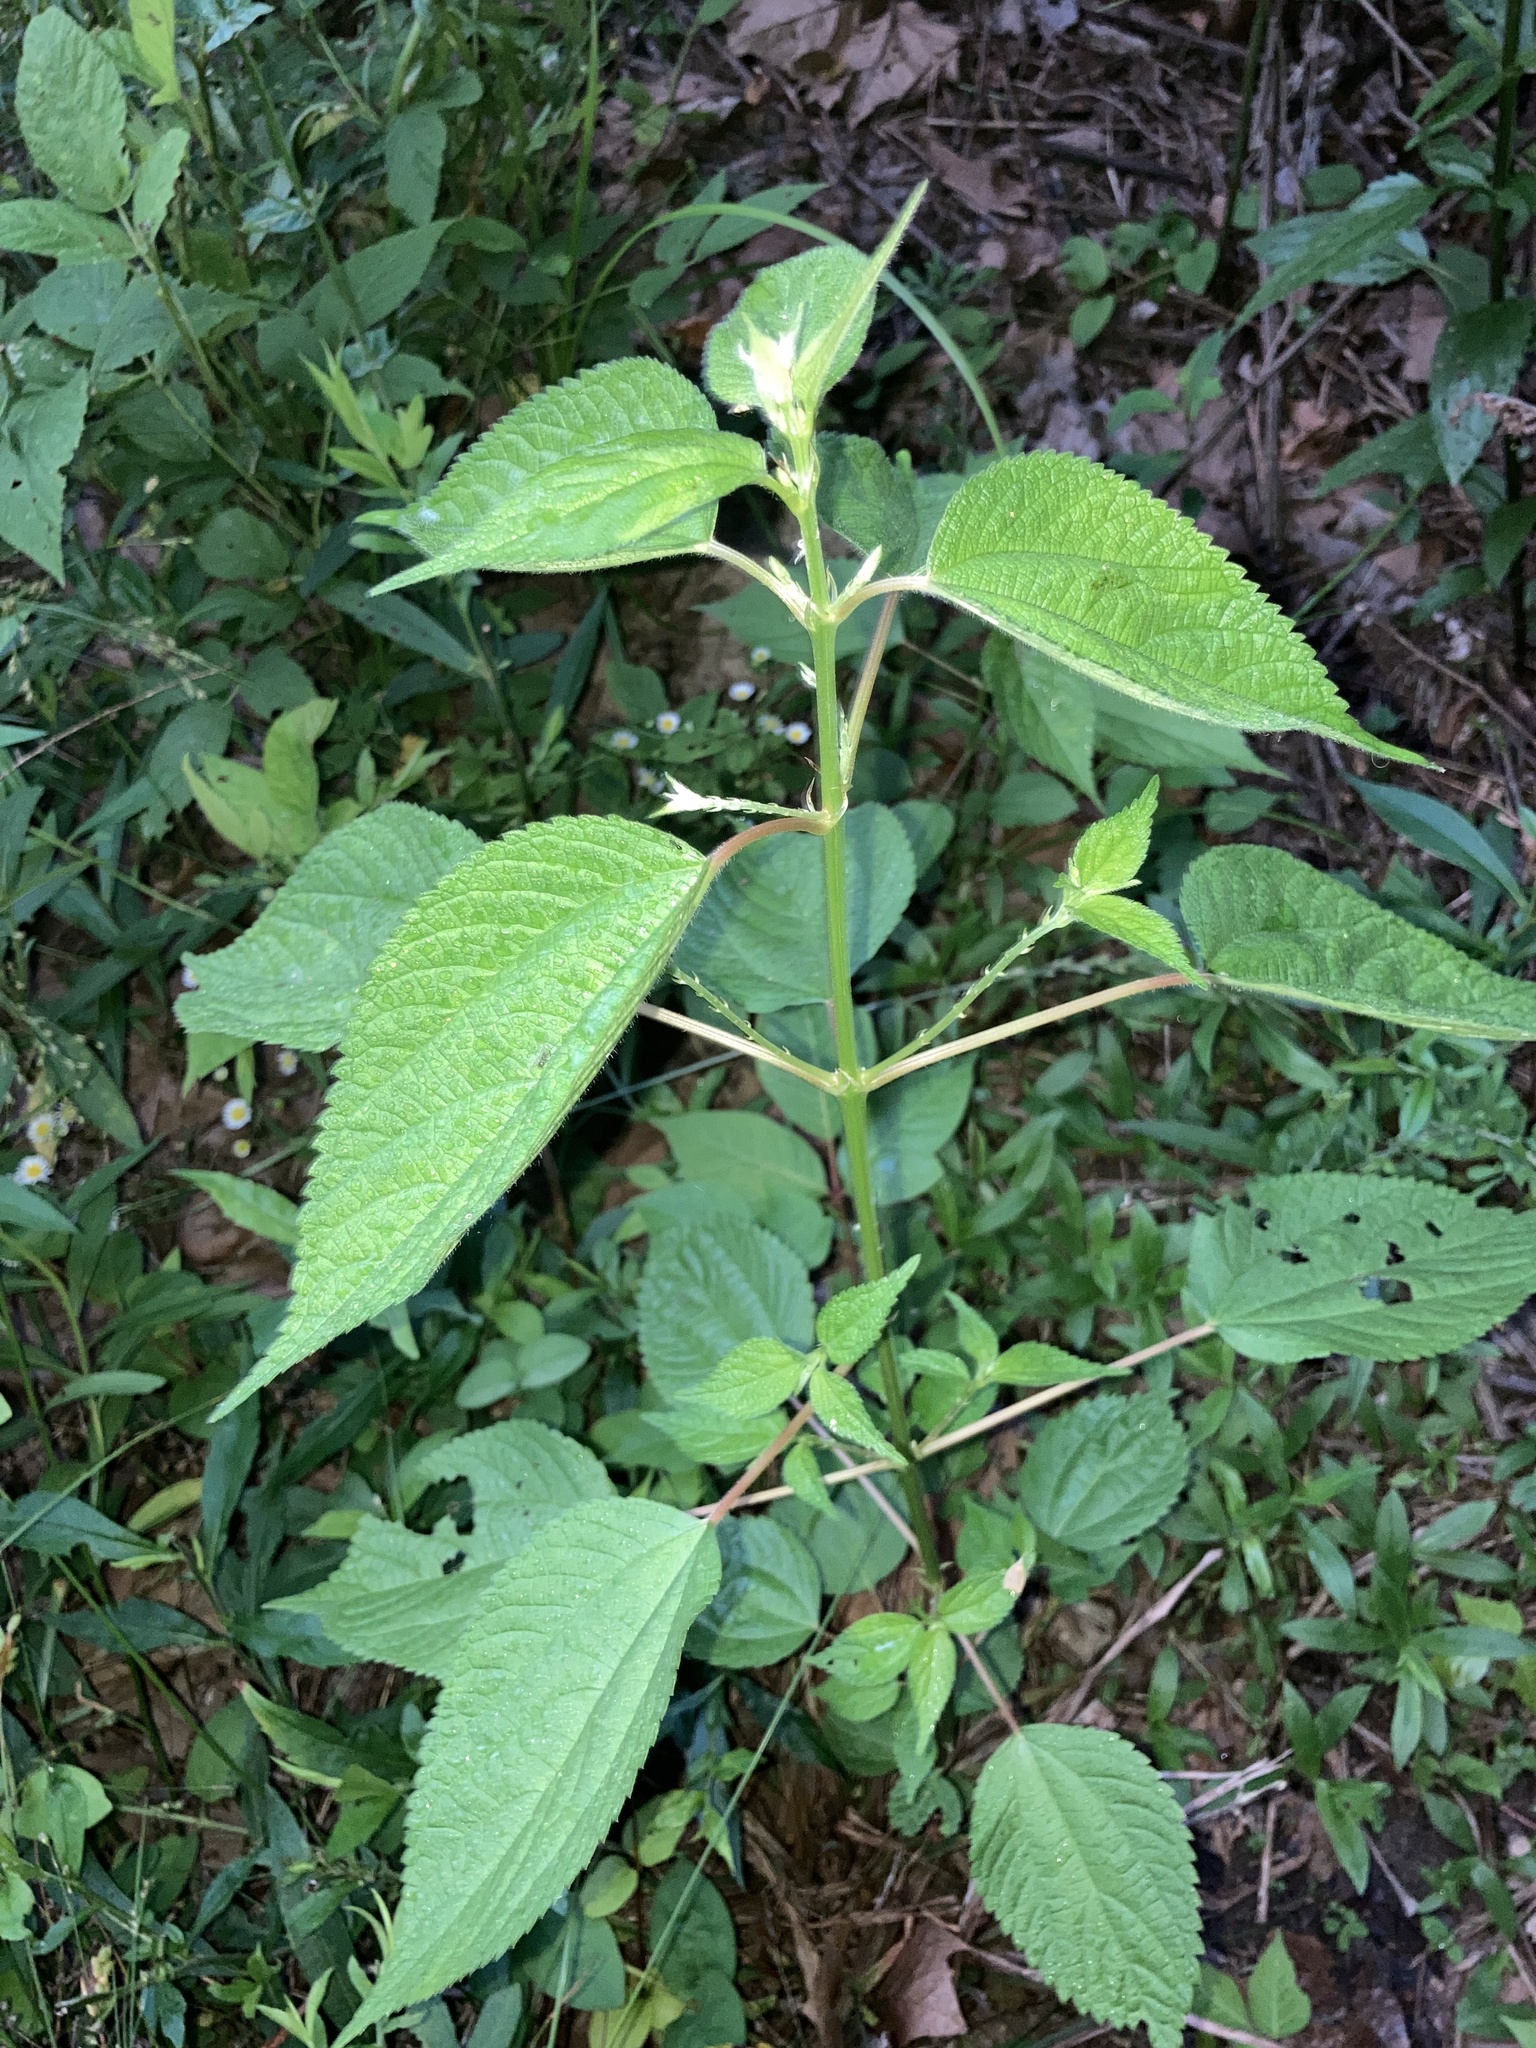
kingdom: Plantae
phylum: Tracheophyta
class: Magnoliopsida
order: Rosales
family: Urticaceae
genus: Boehmeria
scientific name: Boehmeria cylindrica
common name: Bog-hemp
